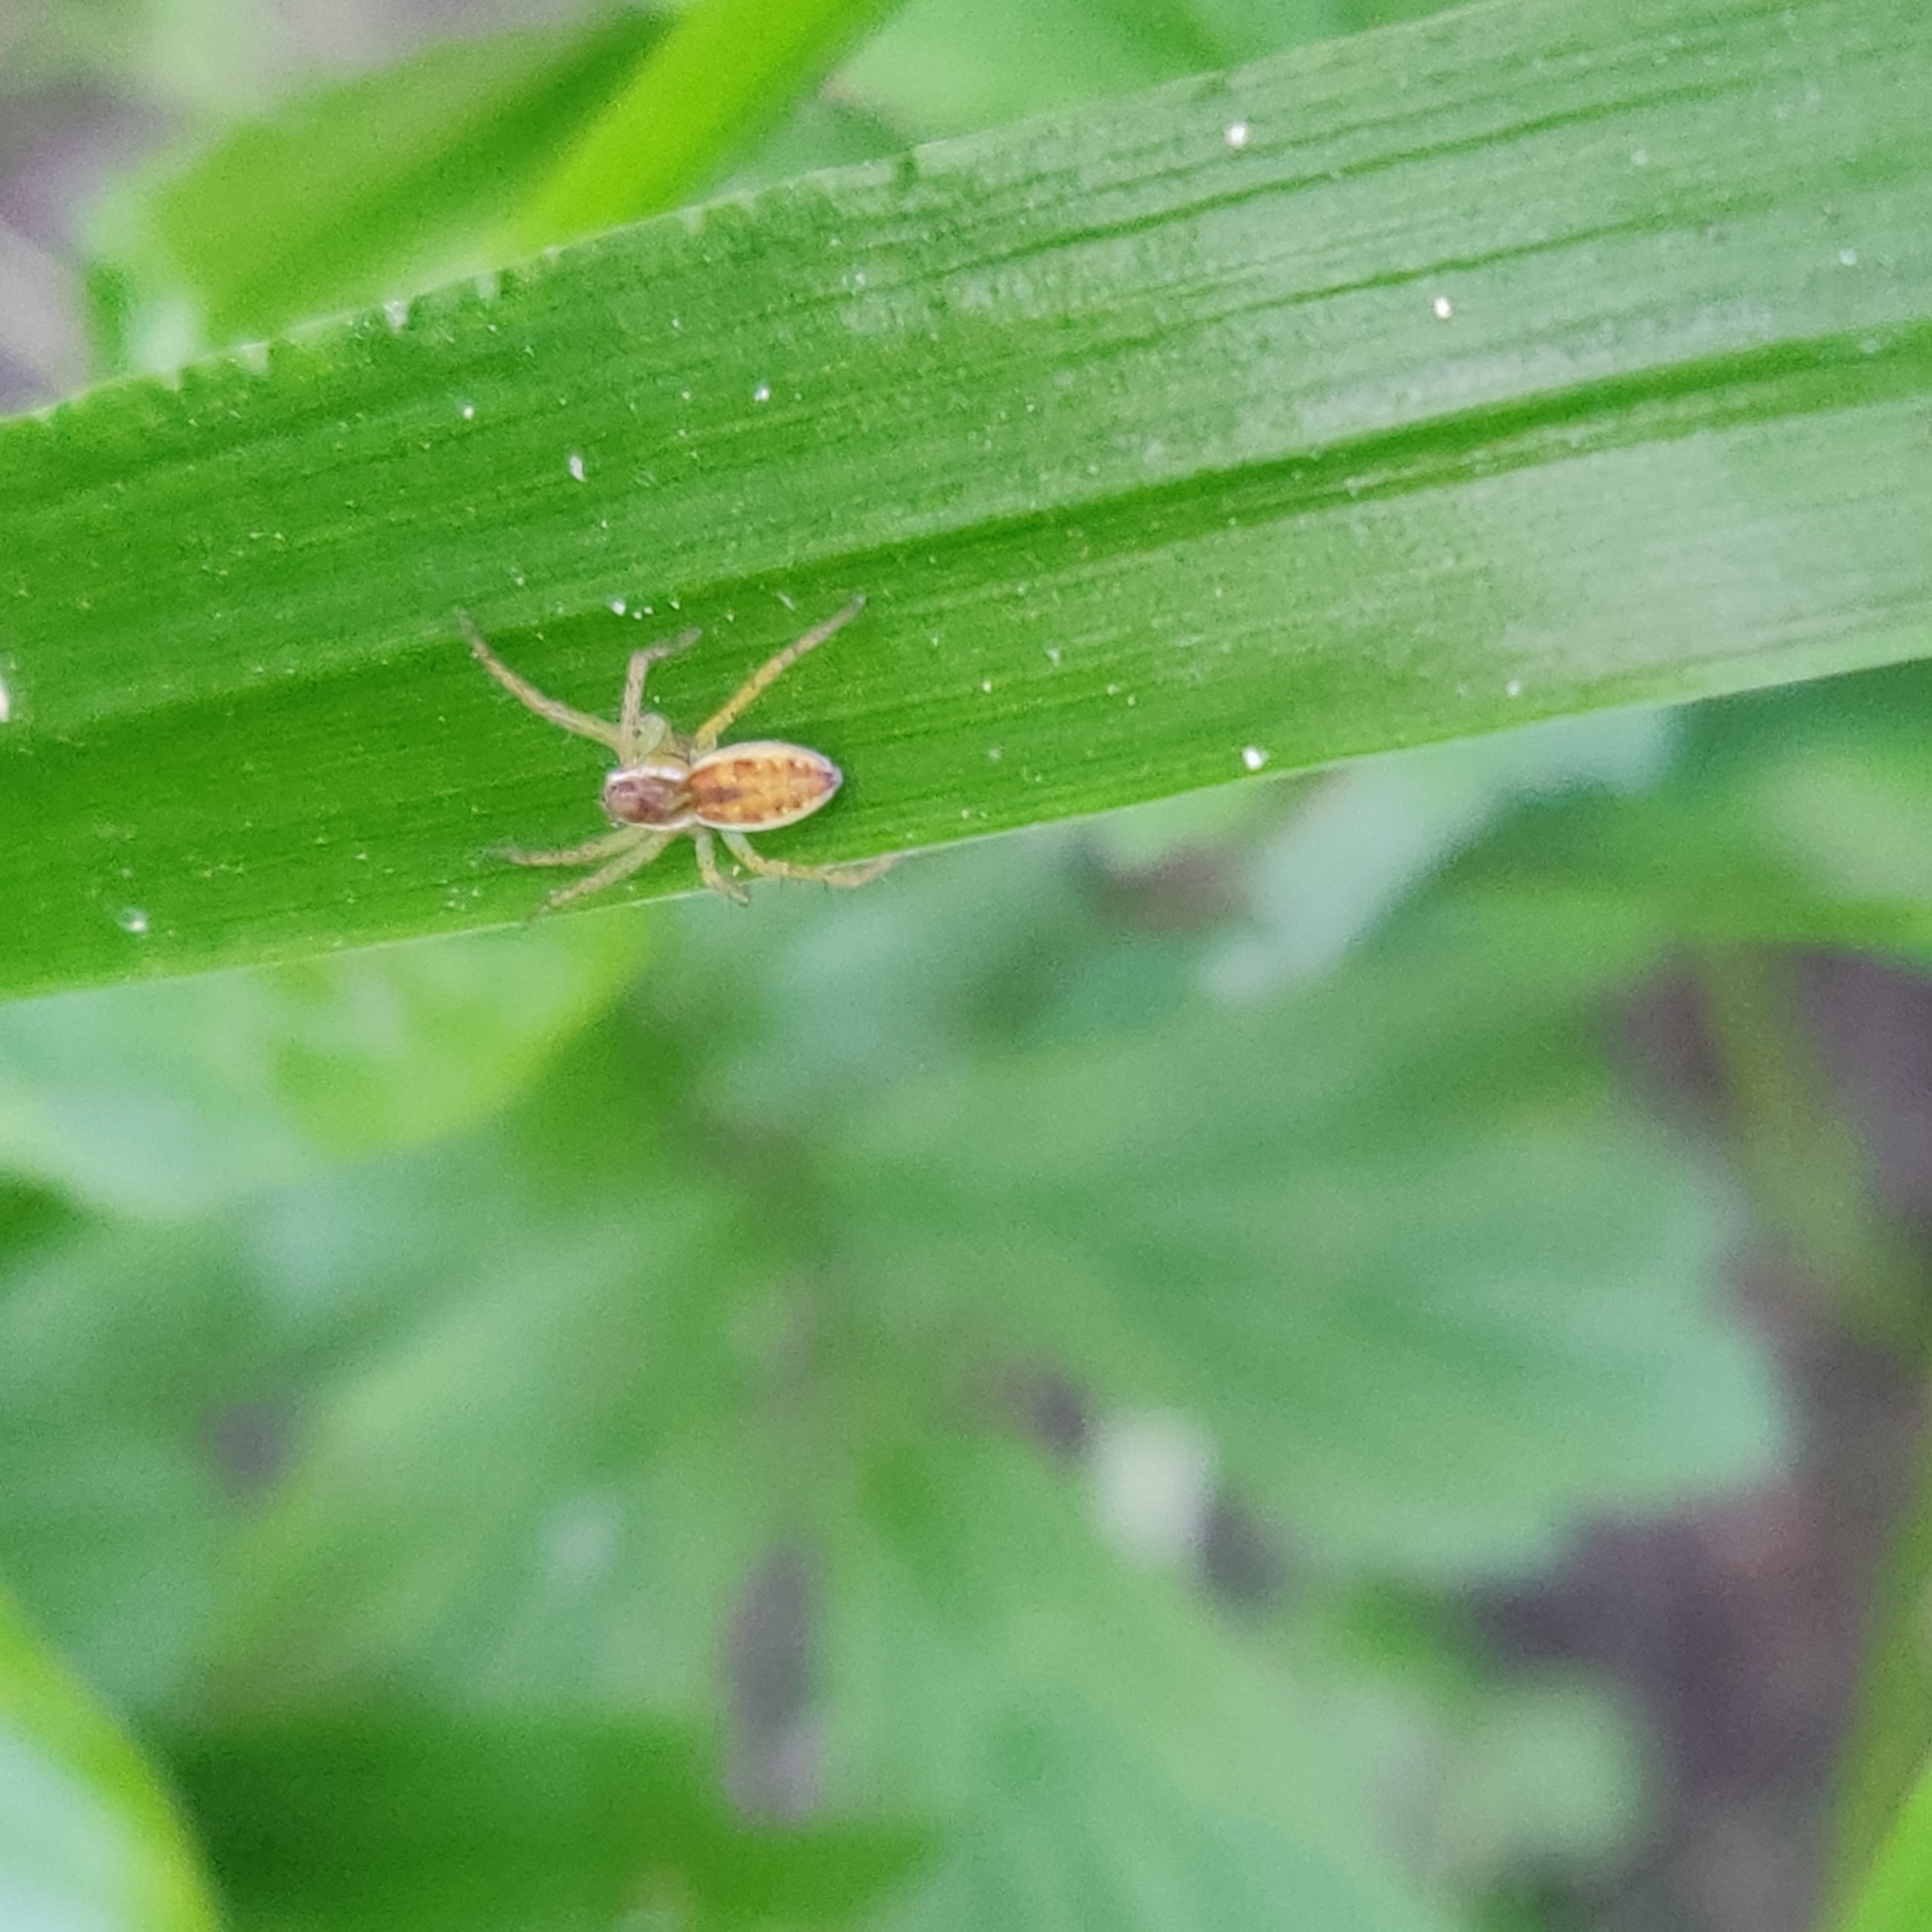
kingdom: Animalia
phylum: Arthropoda
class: Arachnida
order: Araneae
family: Pisauridae
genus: Dolomedes
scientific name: Dolomedes
